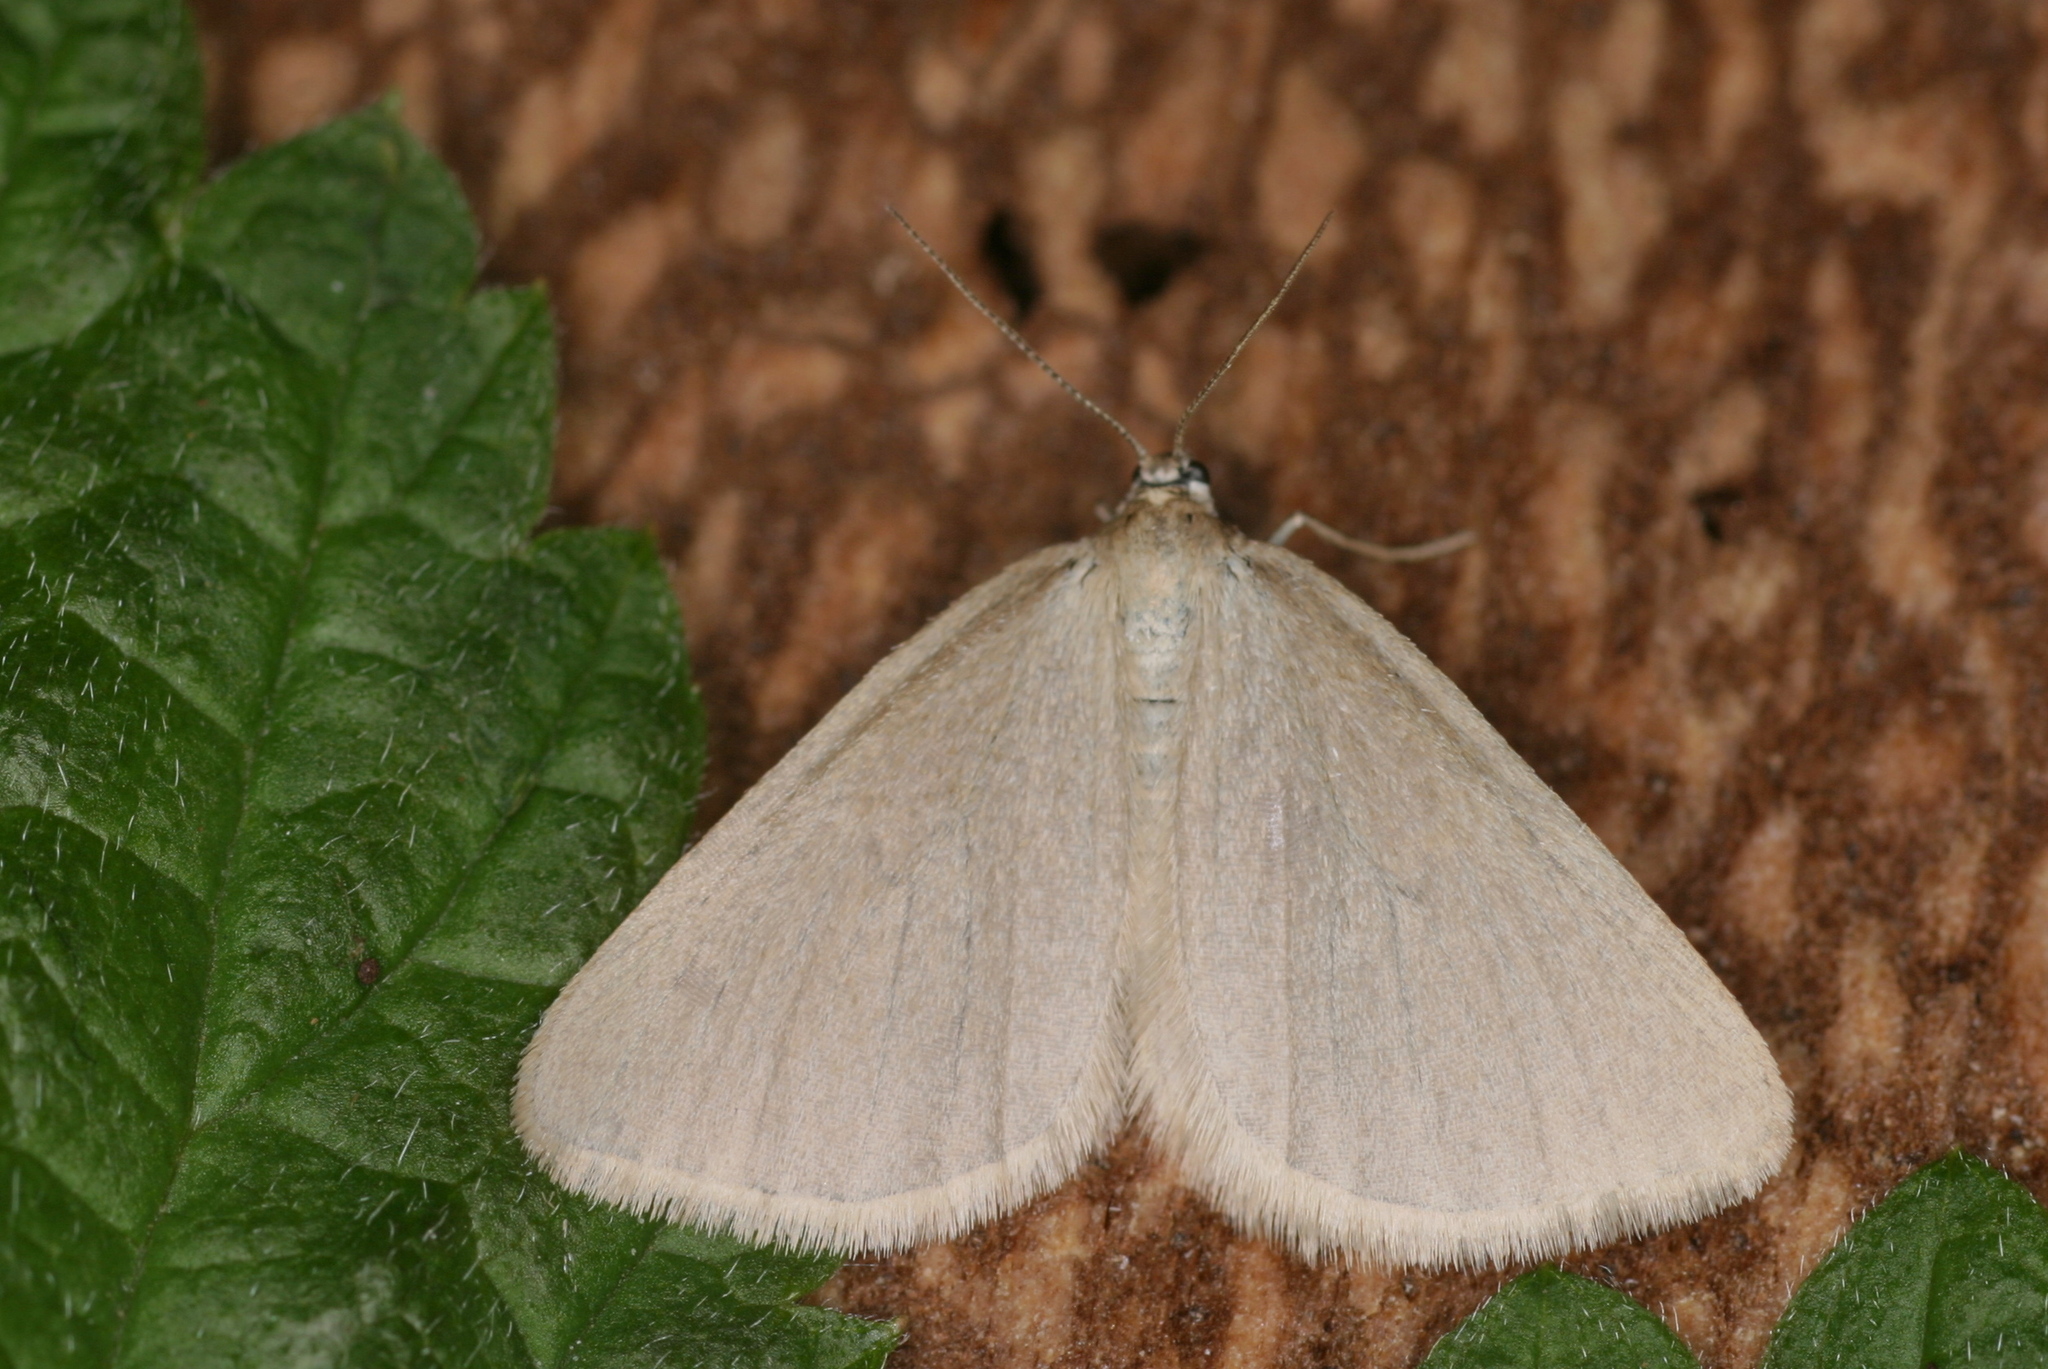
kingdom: Animalia
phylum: Arthropoda
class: Insecta
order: Lepidoptera
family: Geometridae
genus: Minoa
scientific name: Minoa murinata
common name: Drab looper
